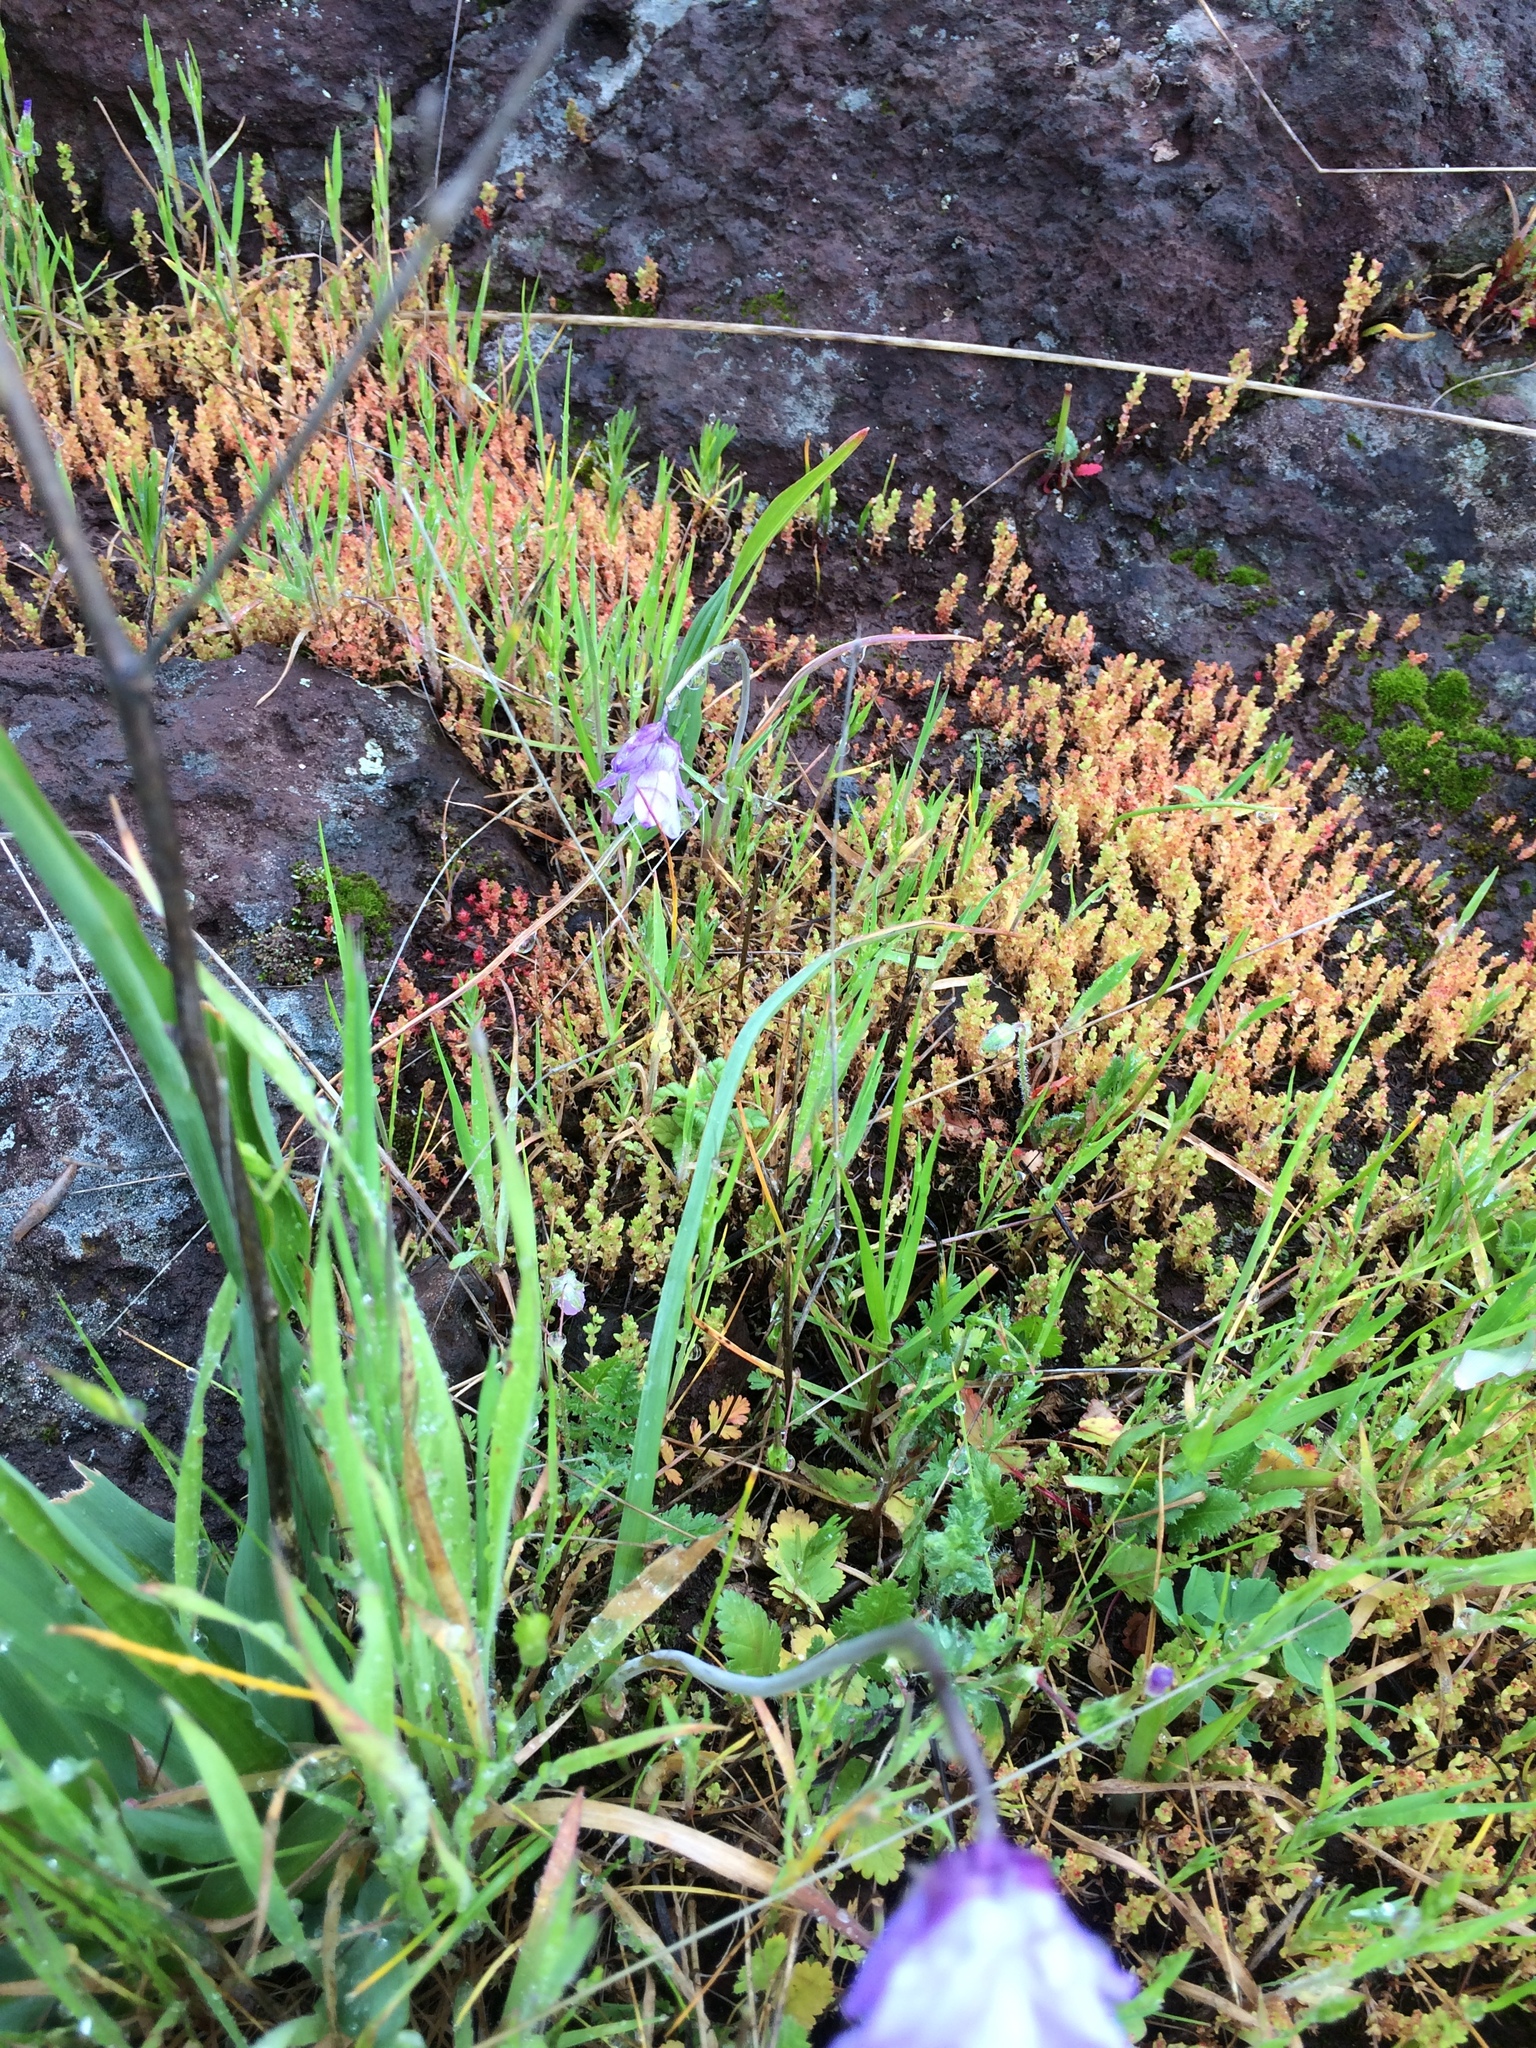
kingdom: Plantae
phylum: Tracheophyta
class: Liliopsida
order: Asparagales
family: Asparagaceae
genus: Dipterostemon
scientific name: Dipterostemon capitatus
